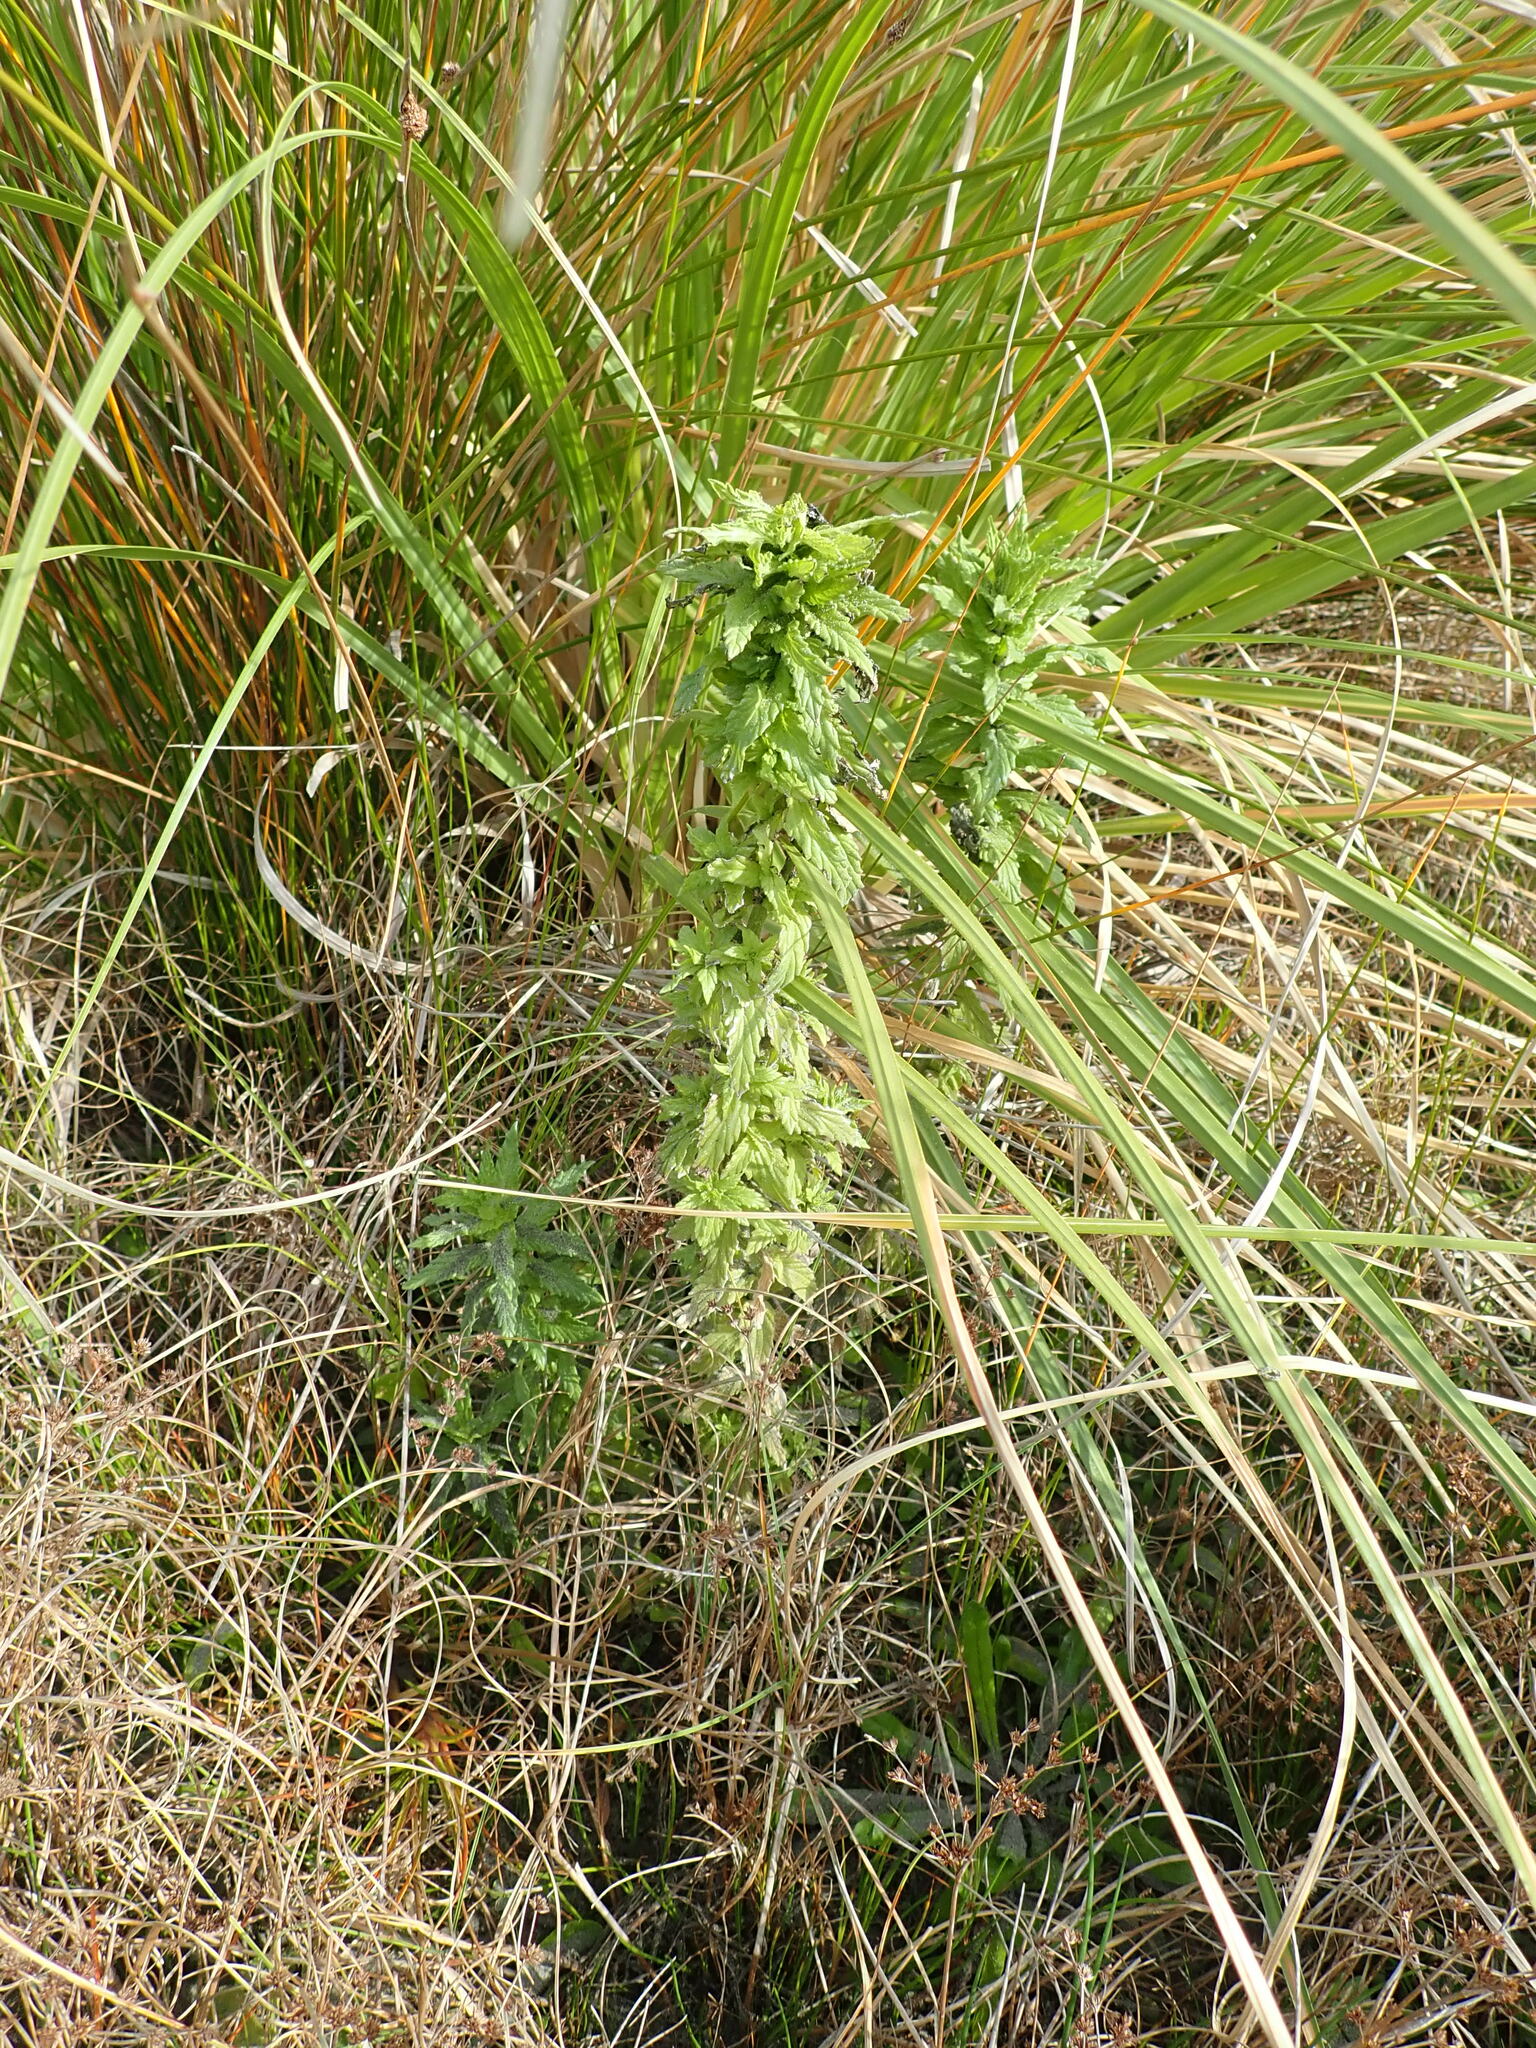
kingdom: Plantae
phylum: Tracheophyta
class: Magnoliopsida
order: Lamiales
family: Orobanchaceae
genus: Bellardia
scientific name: Bellardia viscosa
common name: Sticky parentucellia
